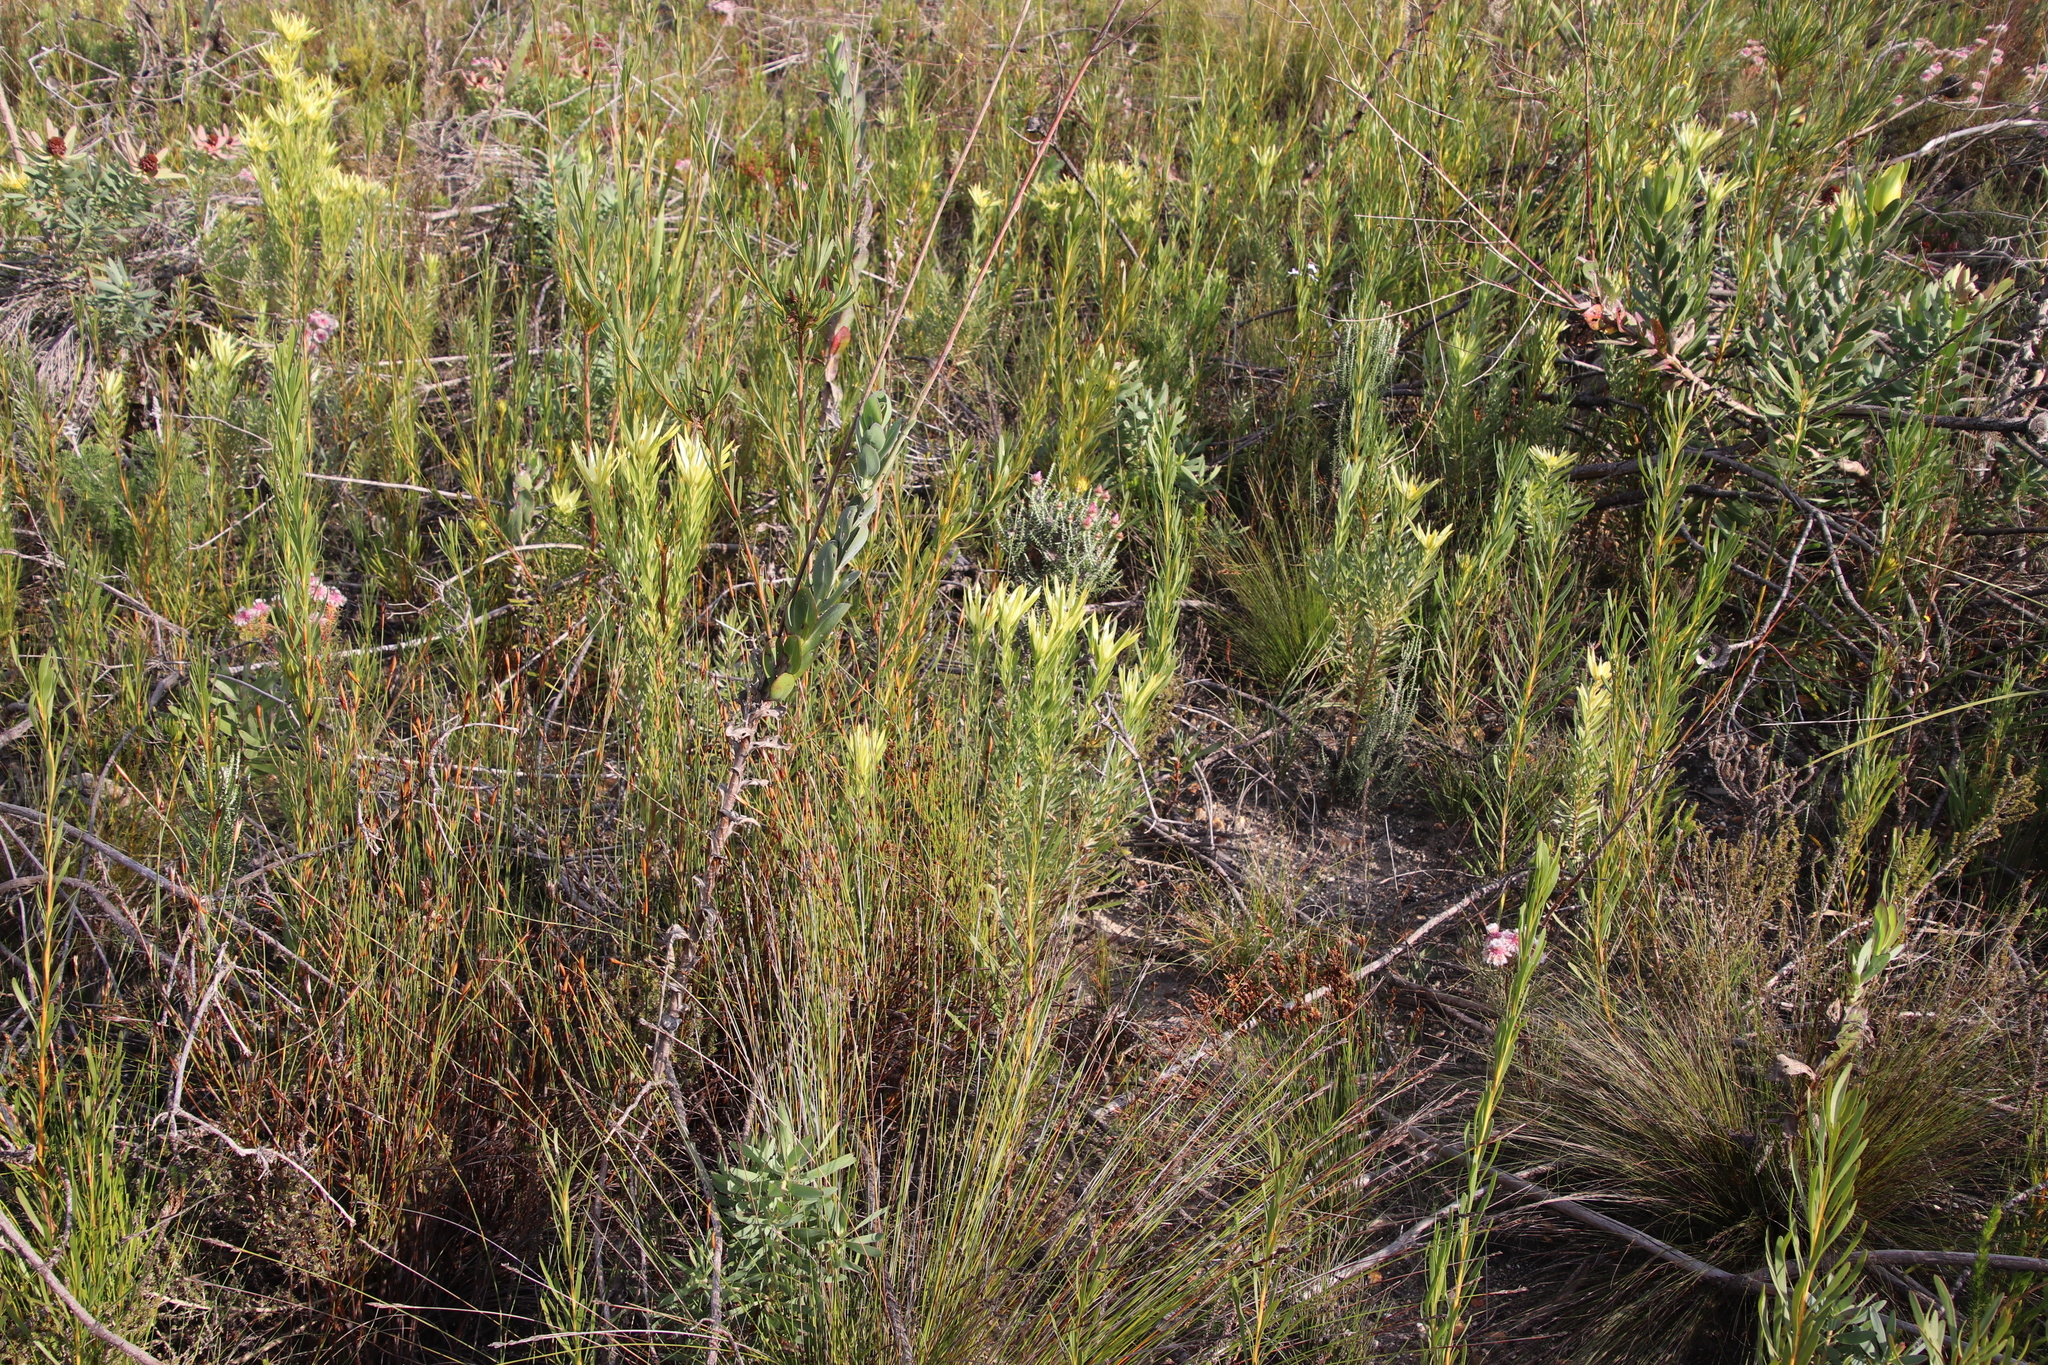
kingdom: Plantae
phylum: Tracheophyta
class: Magnoliopsida
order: Proteales
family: Proteaceae
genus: Leucadendron
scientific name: Leucadendron xanthoconus
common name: Sickle-leaf conebush
